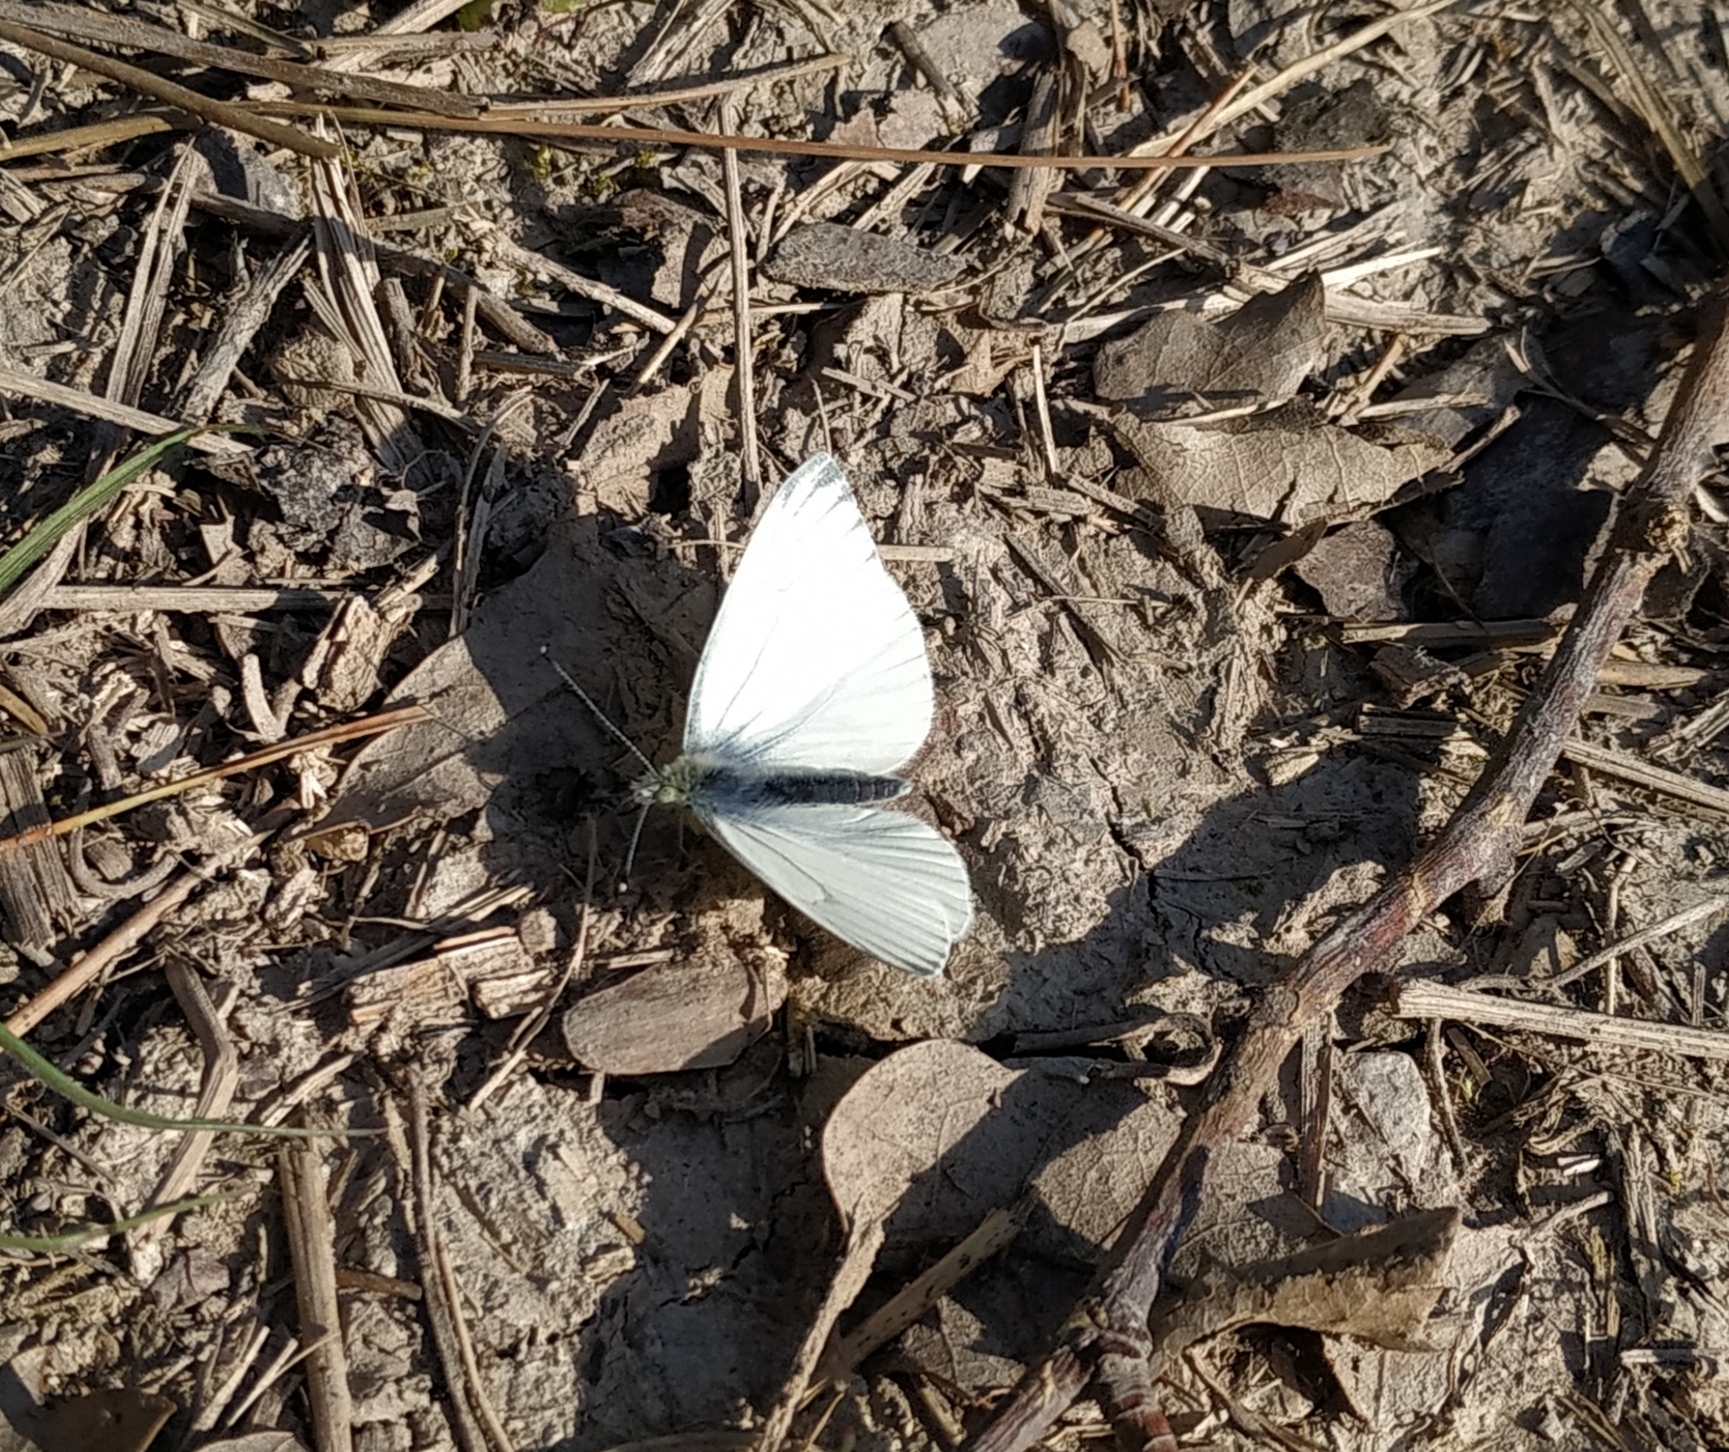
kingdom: Animalia
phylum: Arthropoda
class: Insecta
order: Lepidoptera
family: Pieridae
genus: Pieris
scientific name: Pieris napi
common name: Green-veined white
